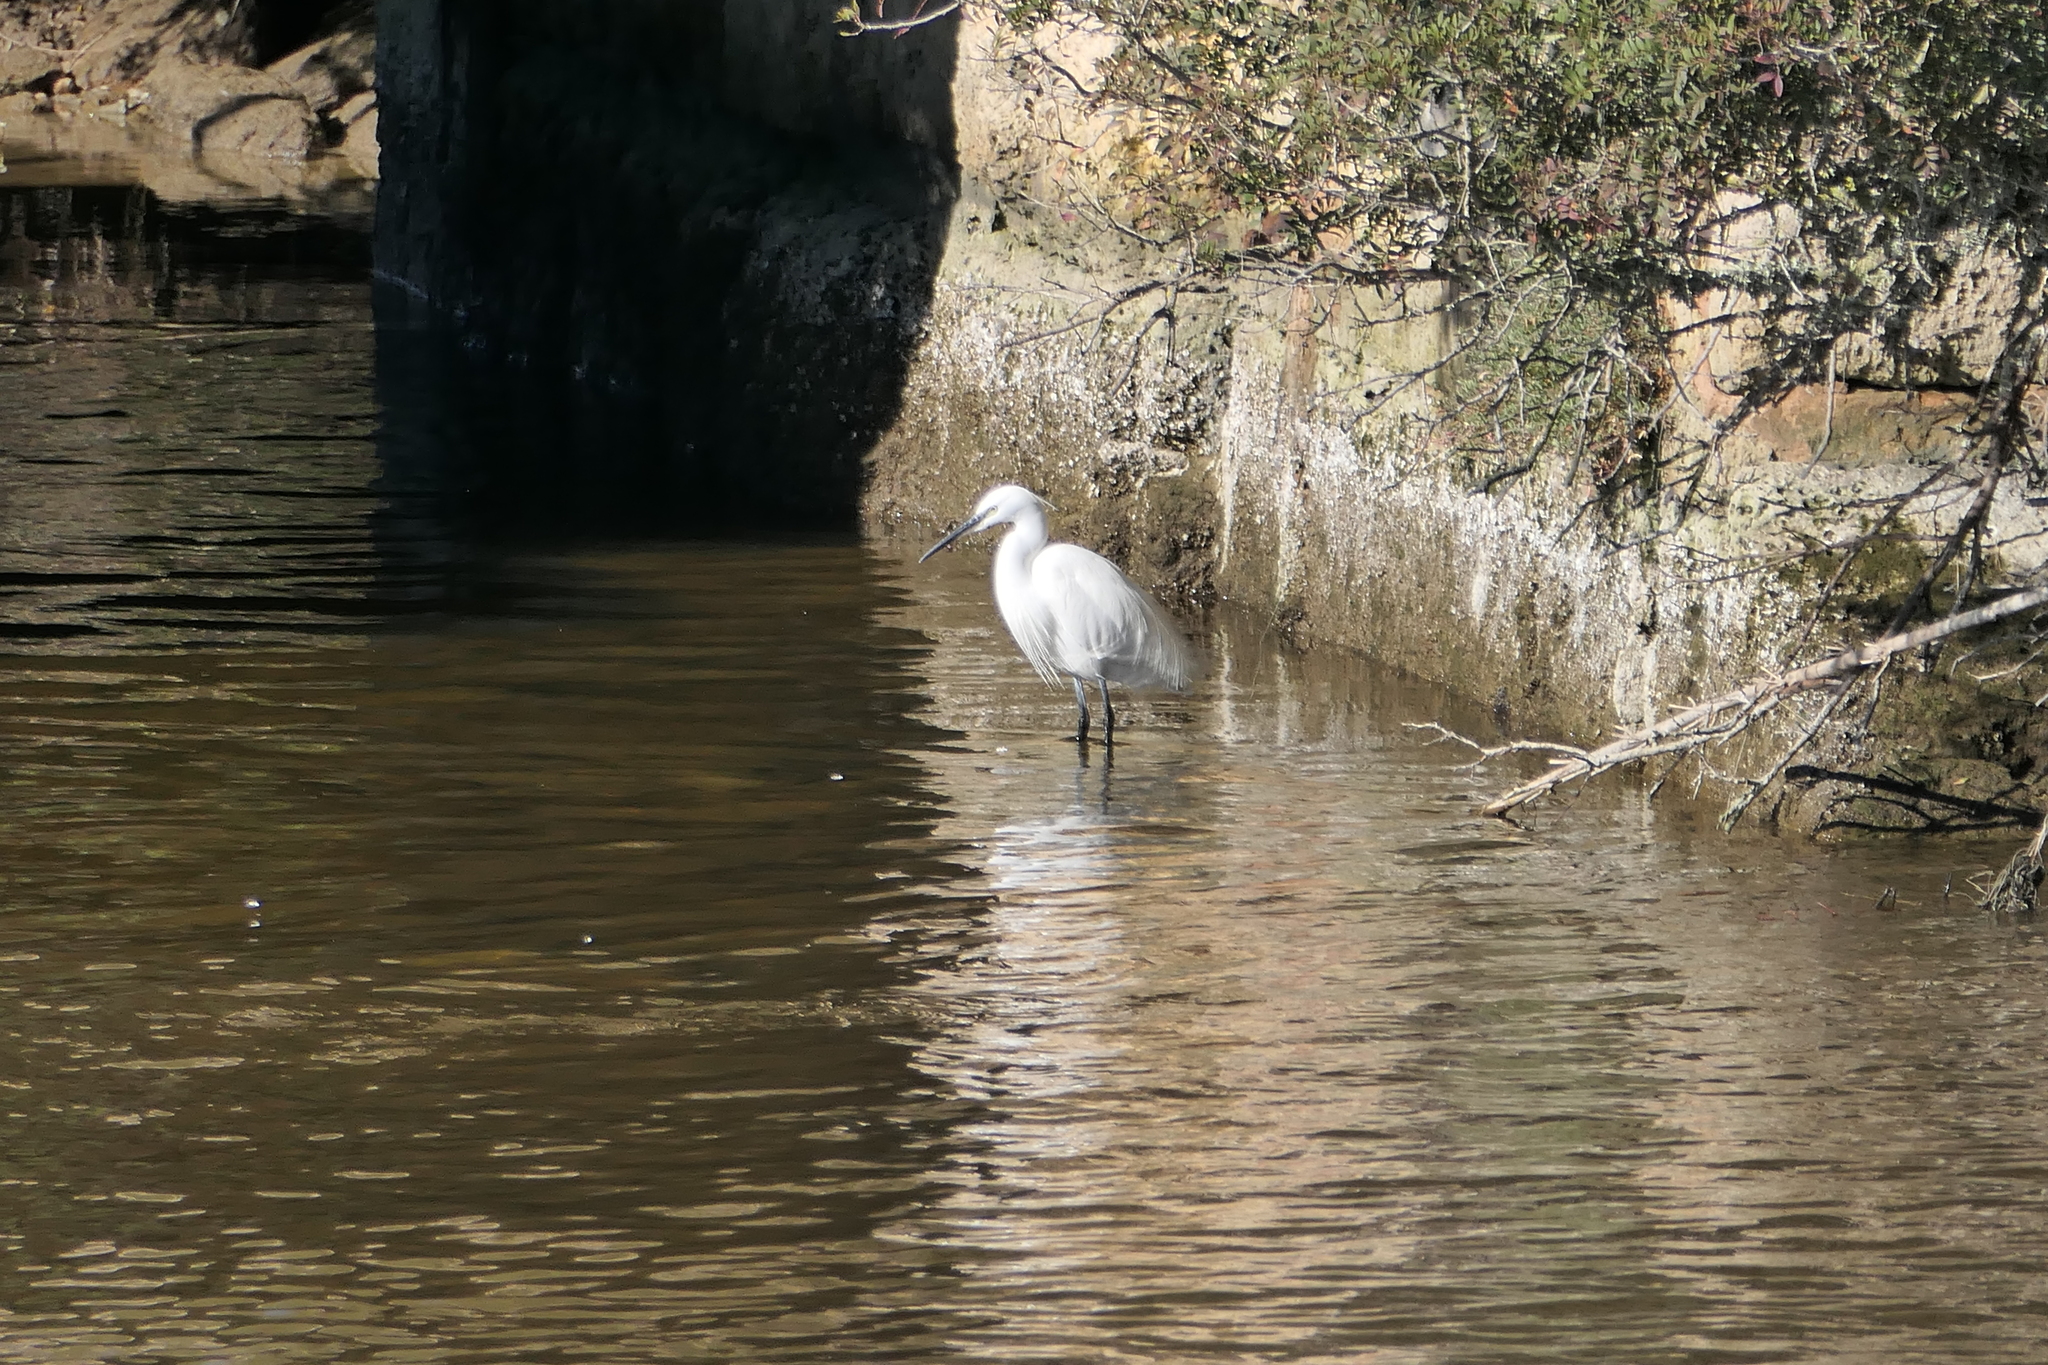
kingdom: Animalia
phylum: Chordata
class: Aves
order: Pelecaniformes
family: Ardeidae
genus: Egretta
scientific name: Egretta garzetta
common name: Little egret
